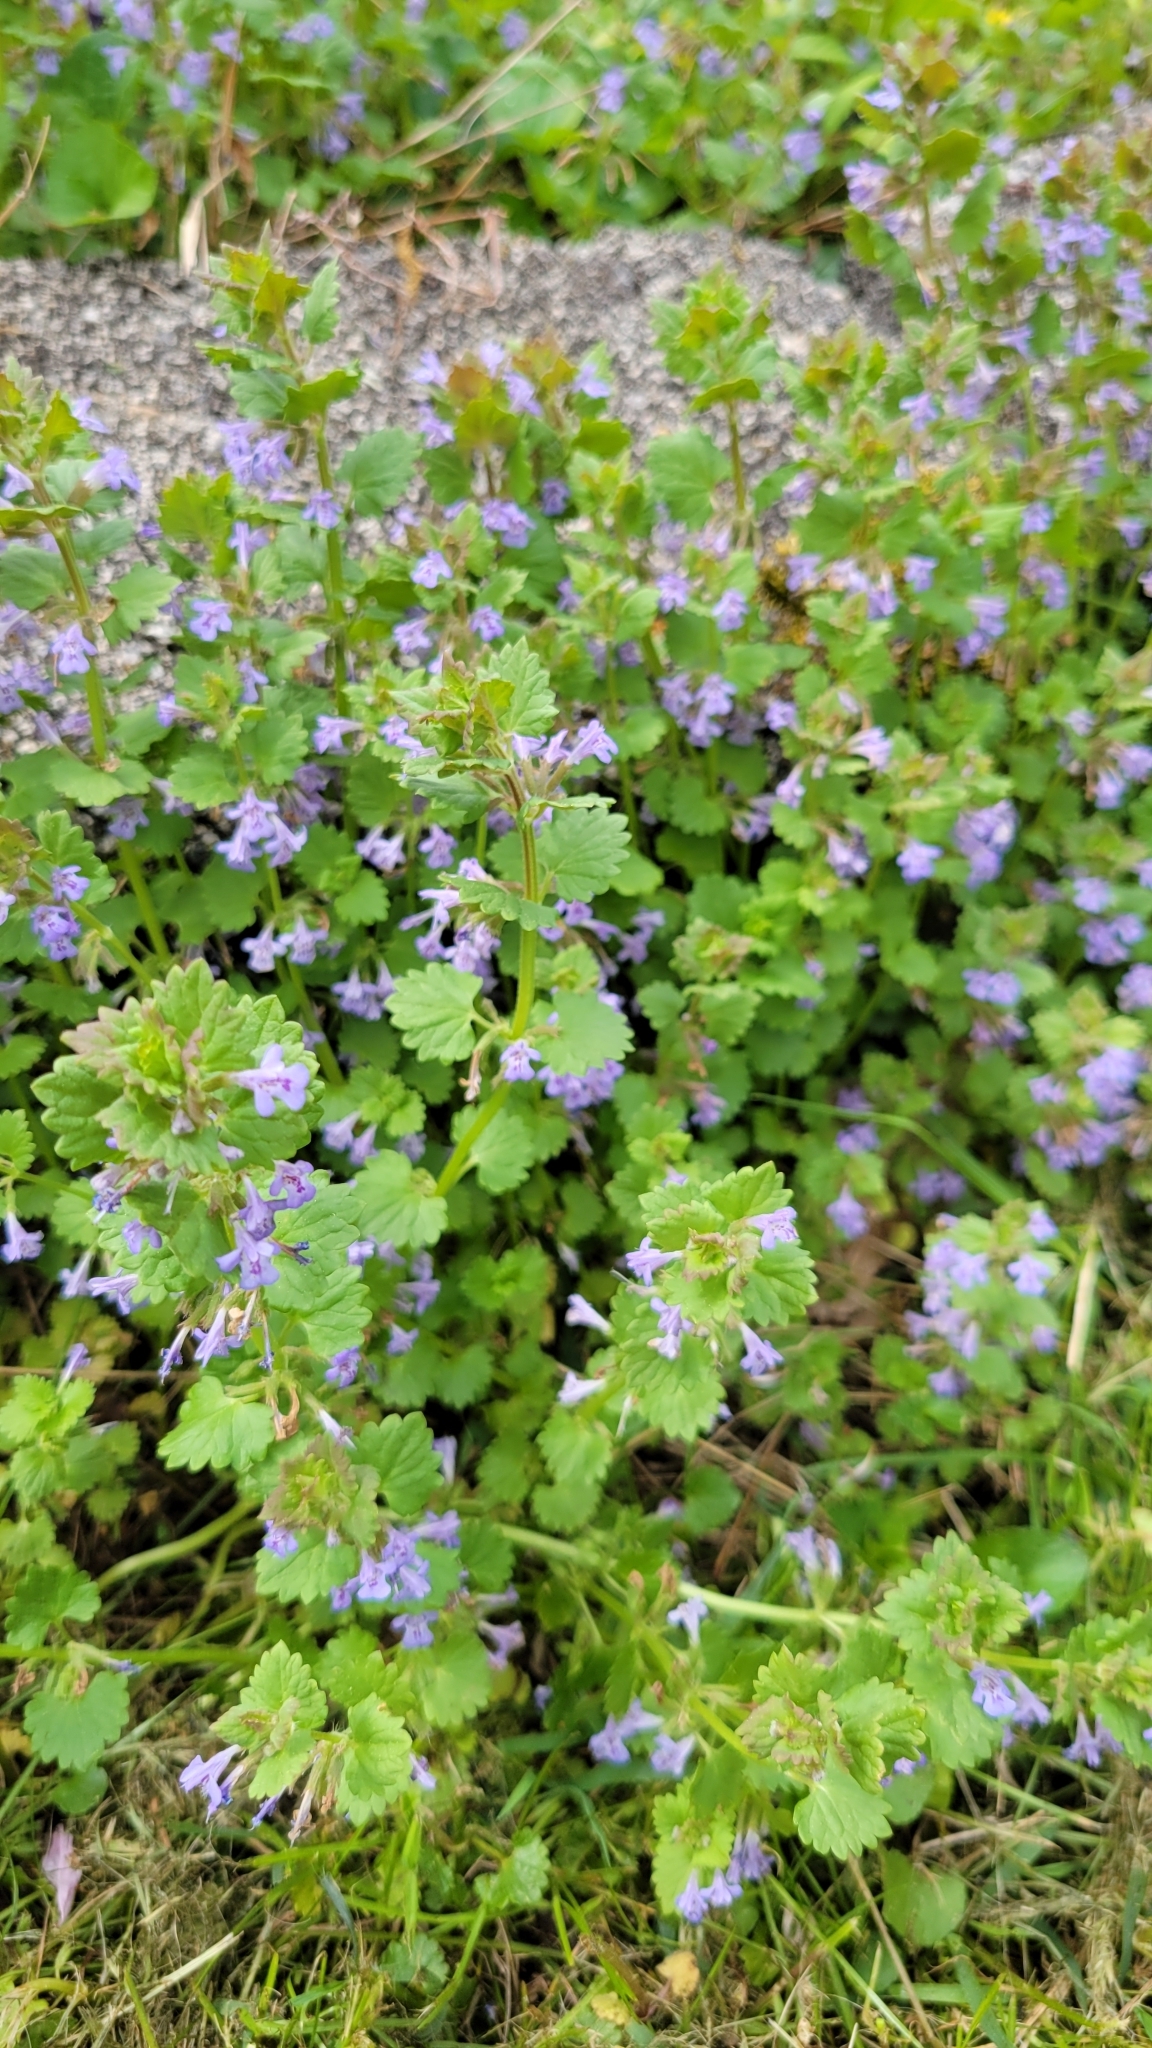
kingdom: Plantae
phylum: Tracheophyta
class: Magnoliopsida
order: Lamiales
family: Lamiaceae
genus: Glechoma
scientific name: Glechoma hederacea
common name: Ground ivy
